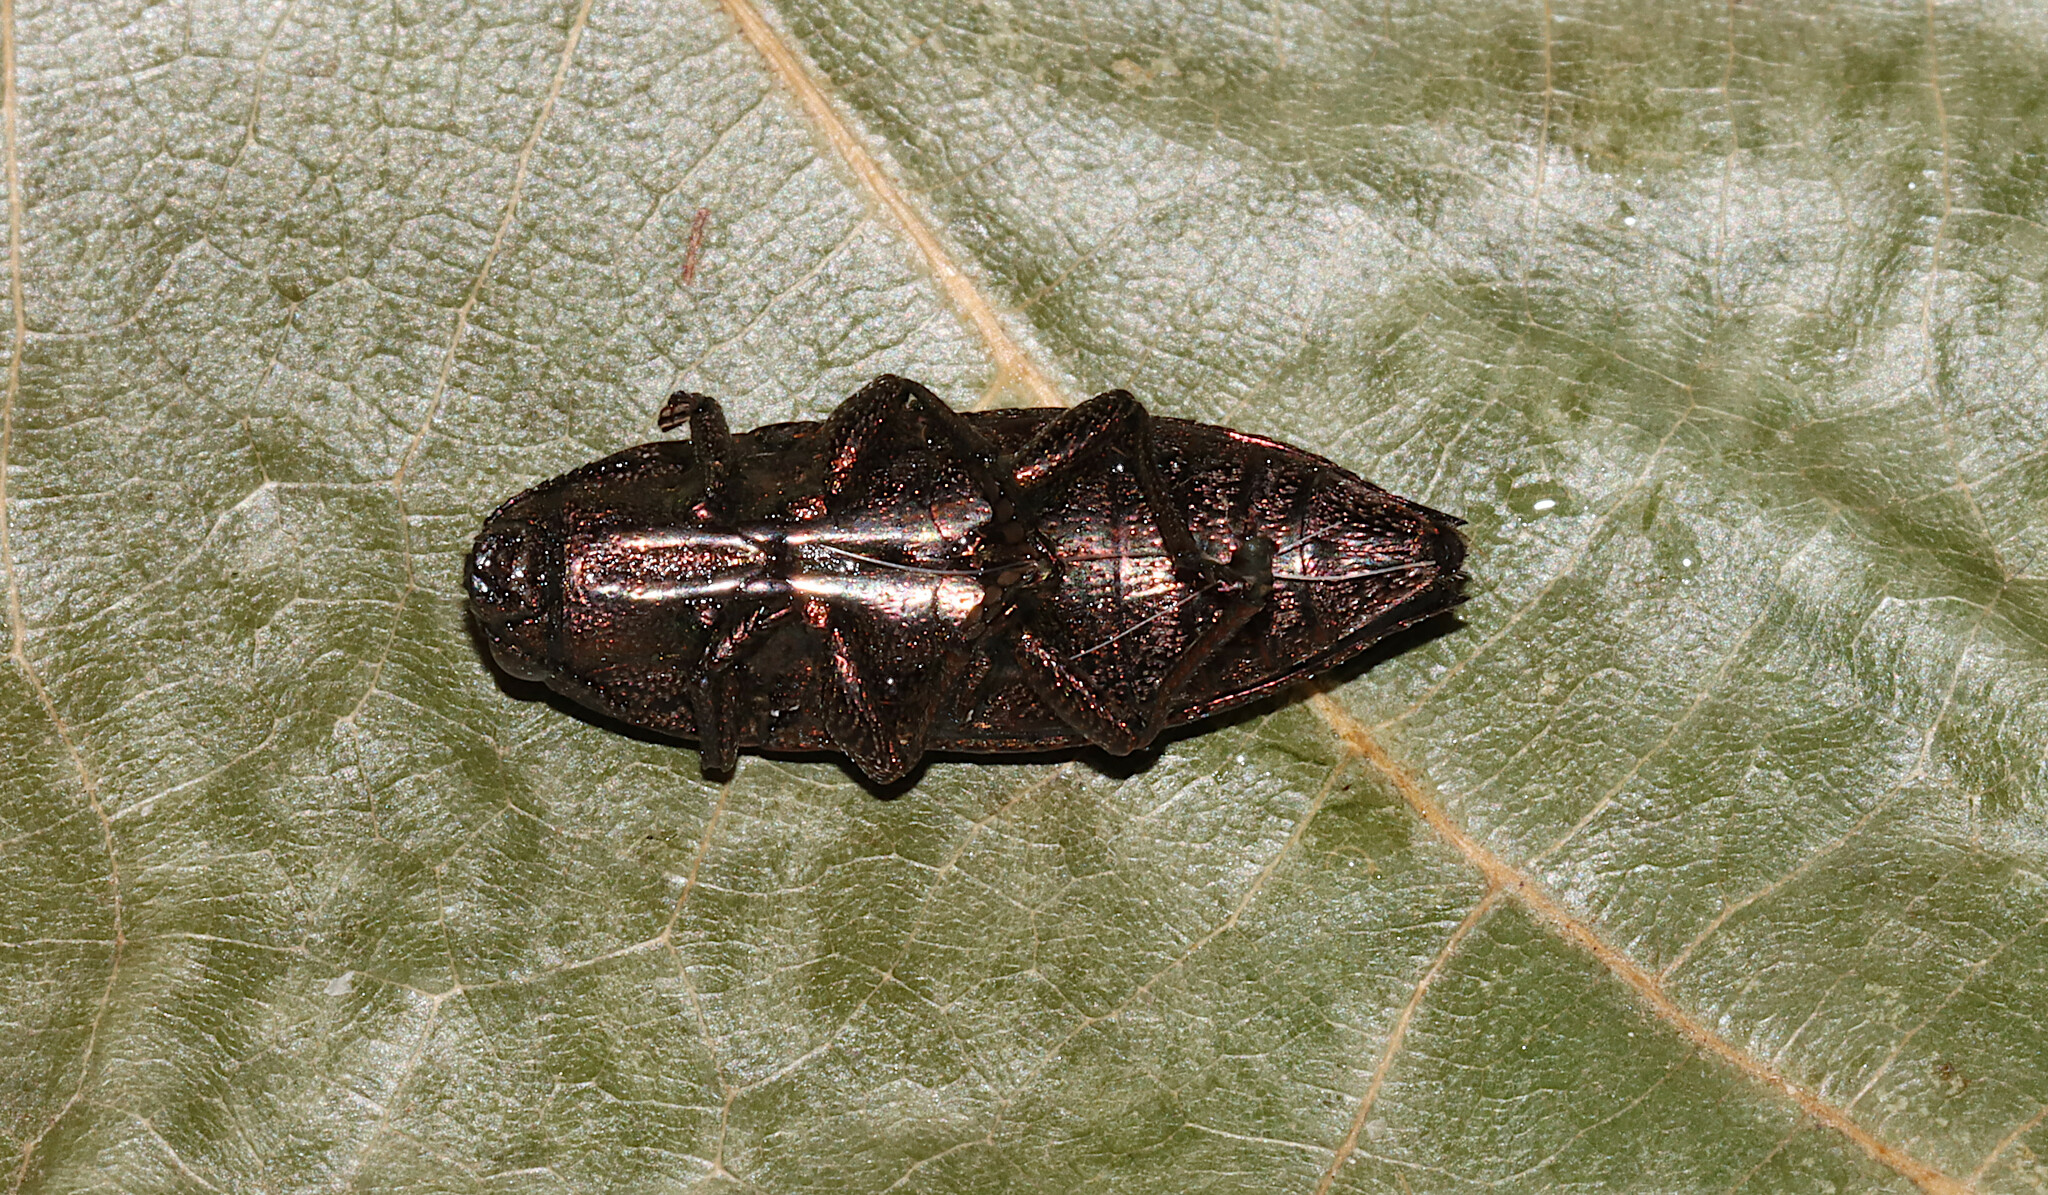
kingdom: Animalia
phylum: Arthropoda
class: Insecta
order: Coleoptera
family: Buprestidae
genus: Dicerca
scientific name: Dicerca obscura
